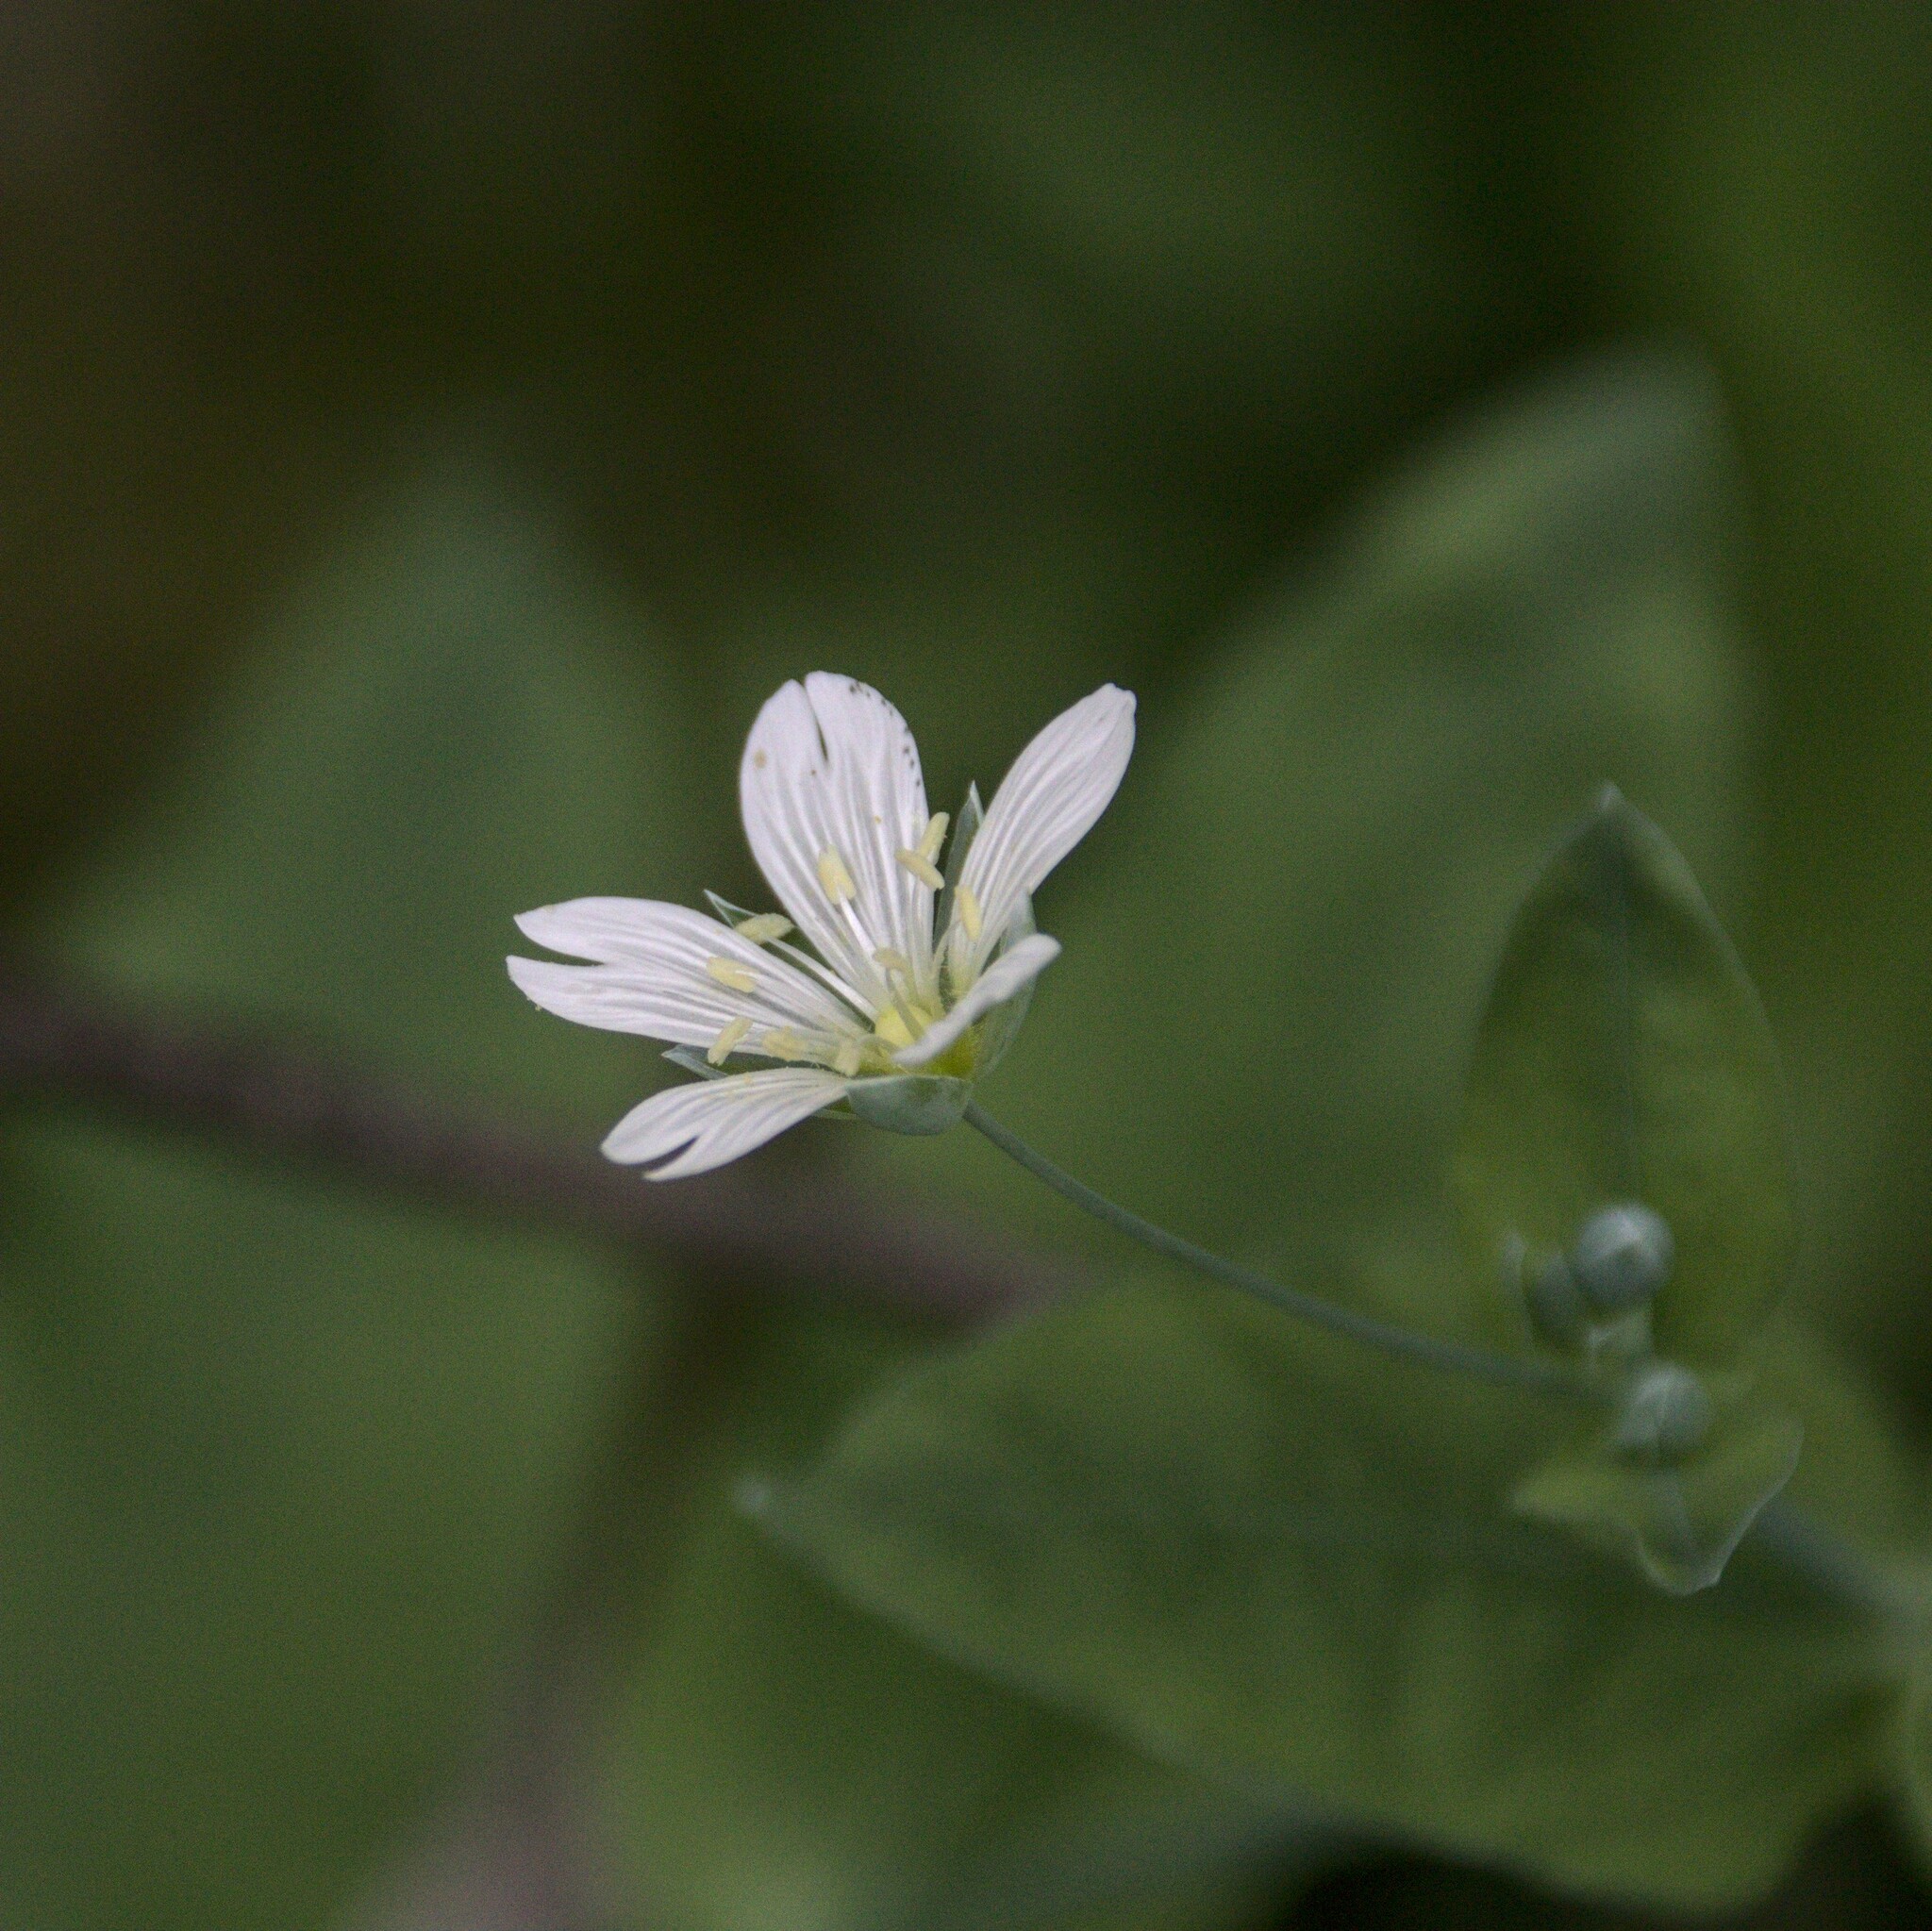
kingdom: Plantae
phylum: Tracheophyta
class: Magnoliopsida
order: Caryophyllales
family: Caryophyllaceae
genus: Cerastium
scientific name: Cerastium davuricum
